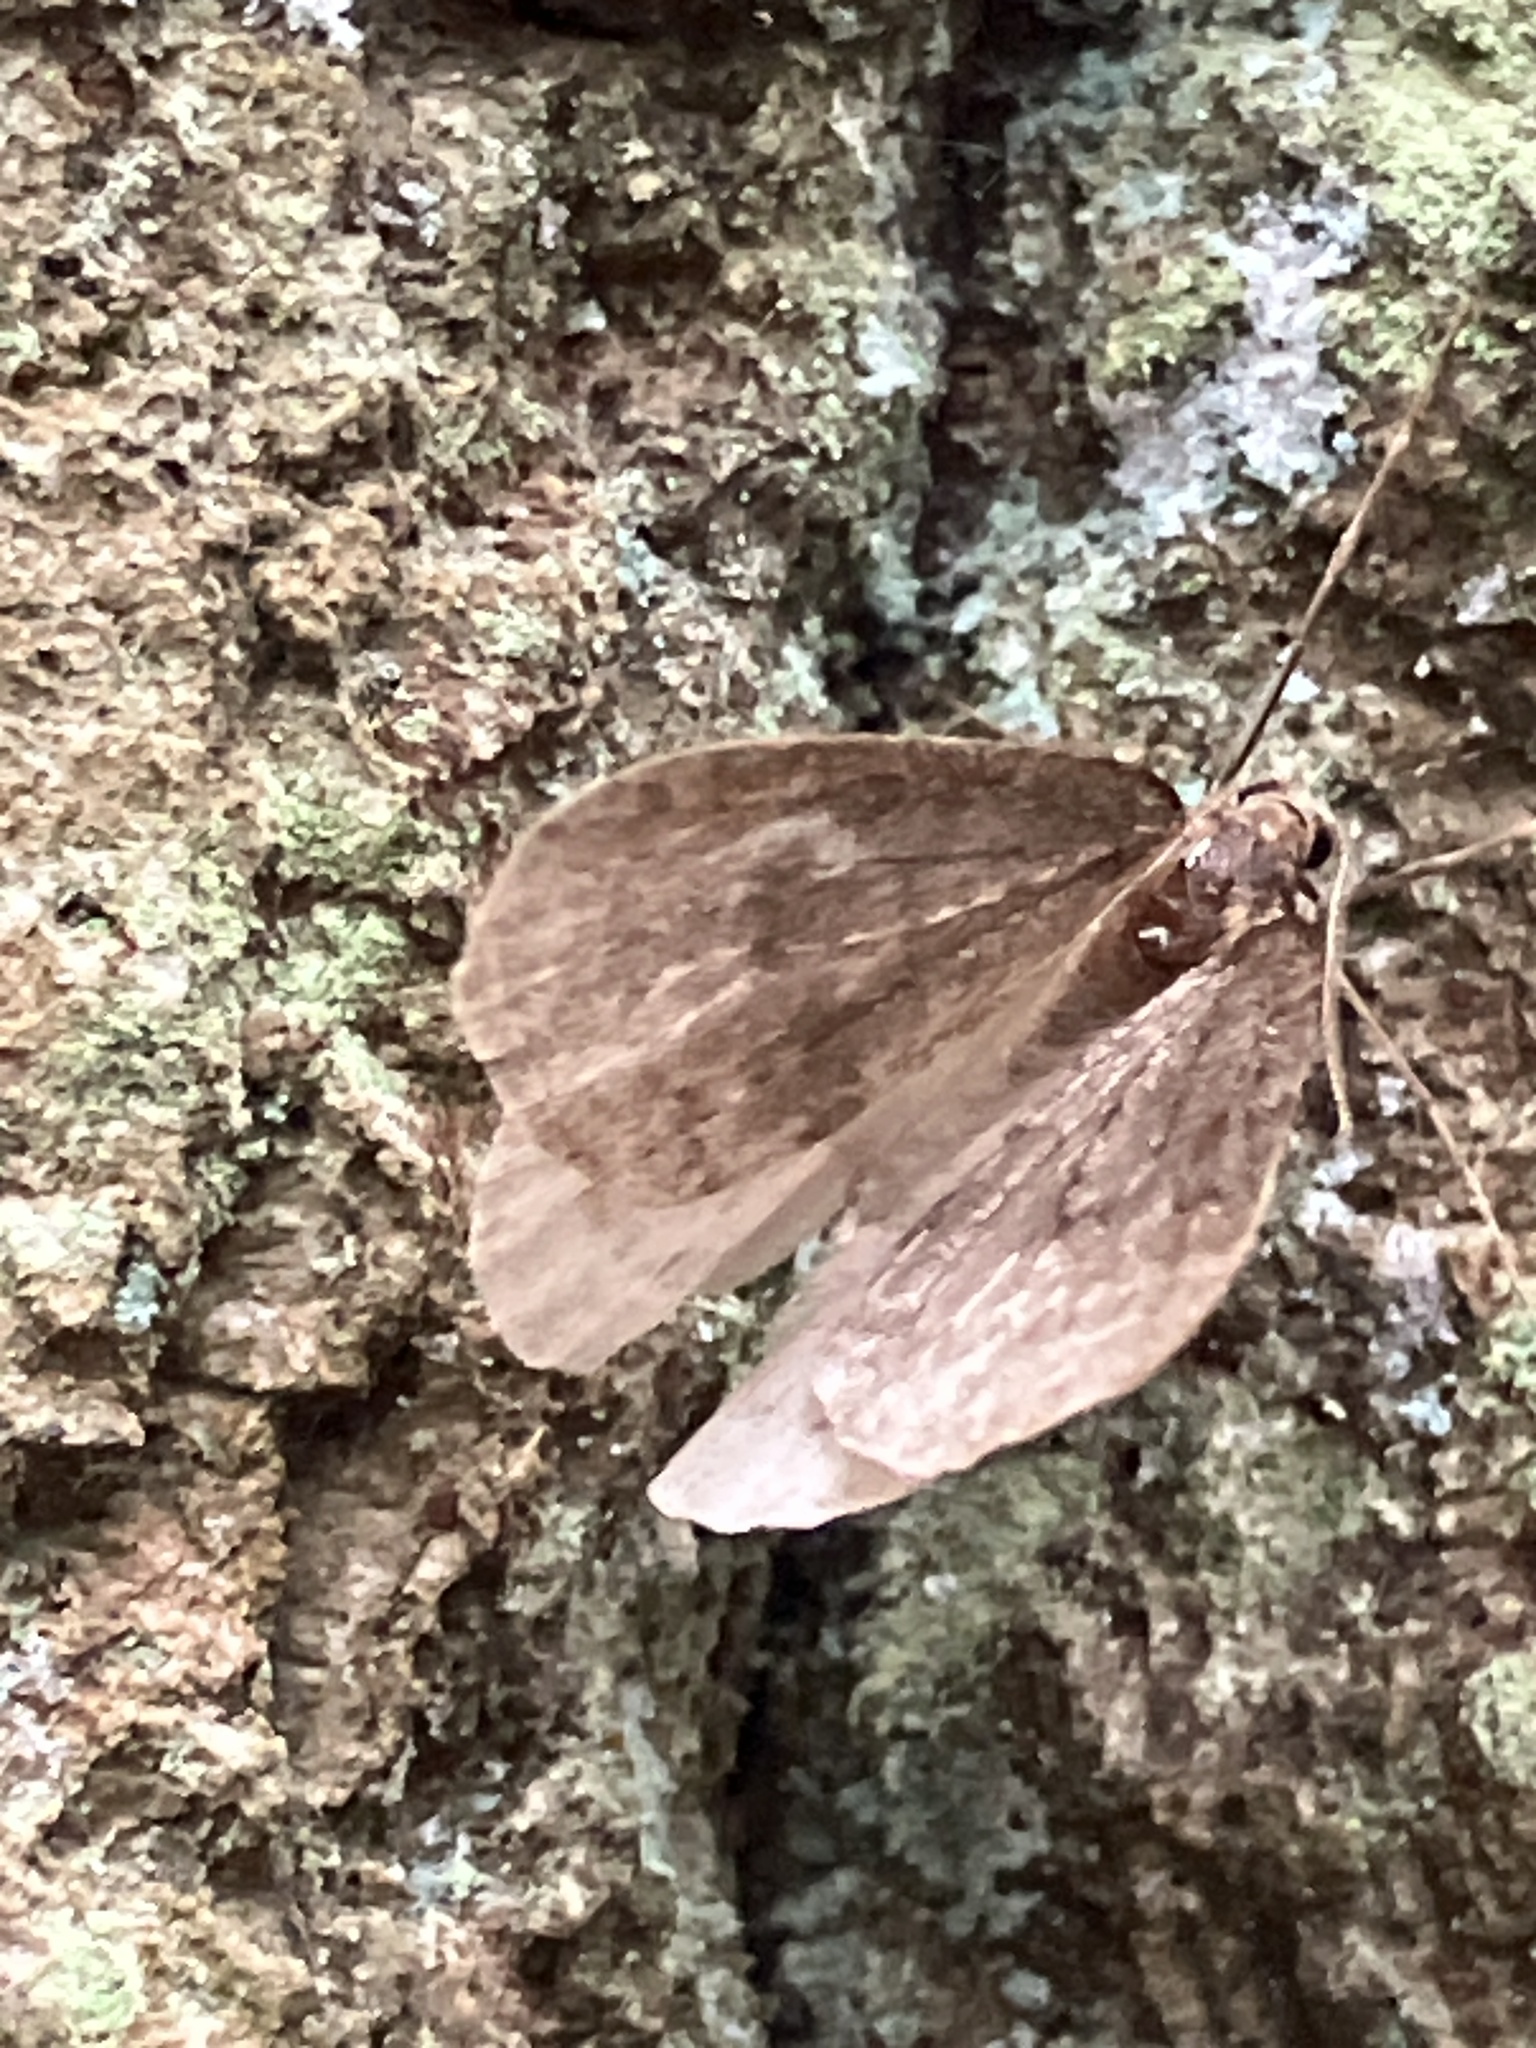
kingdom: Animalia
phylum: Arthropoda
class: Insecta
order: Lepidoptera
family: Geometridae
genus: Operophtera
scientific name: Operophtera brumata
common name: Winter moth
